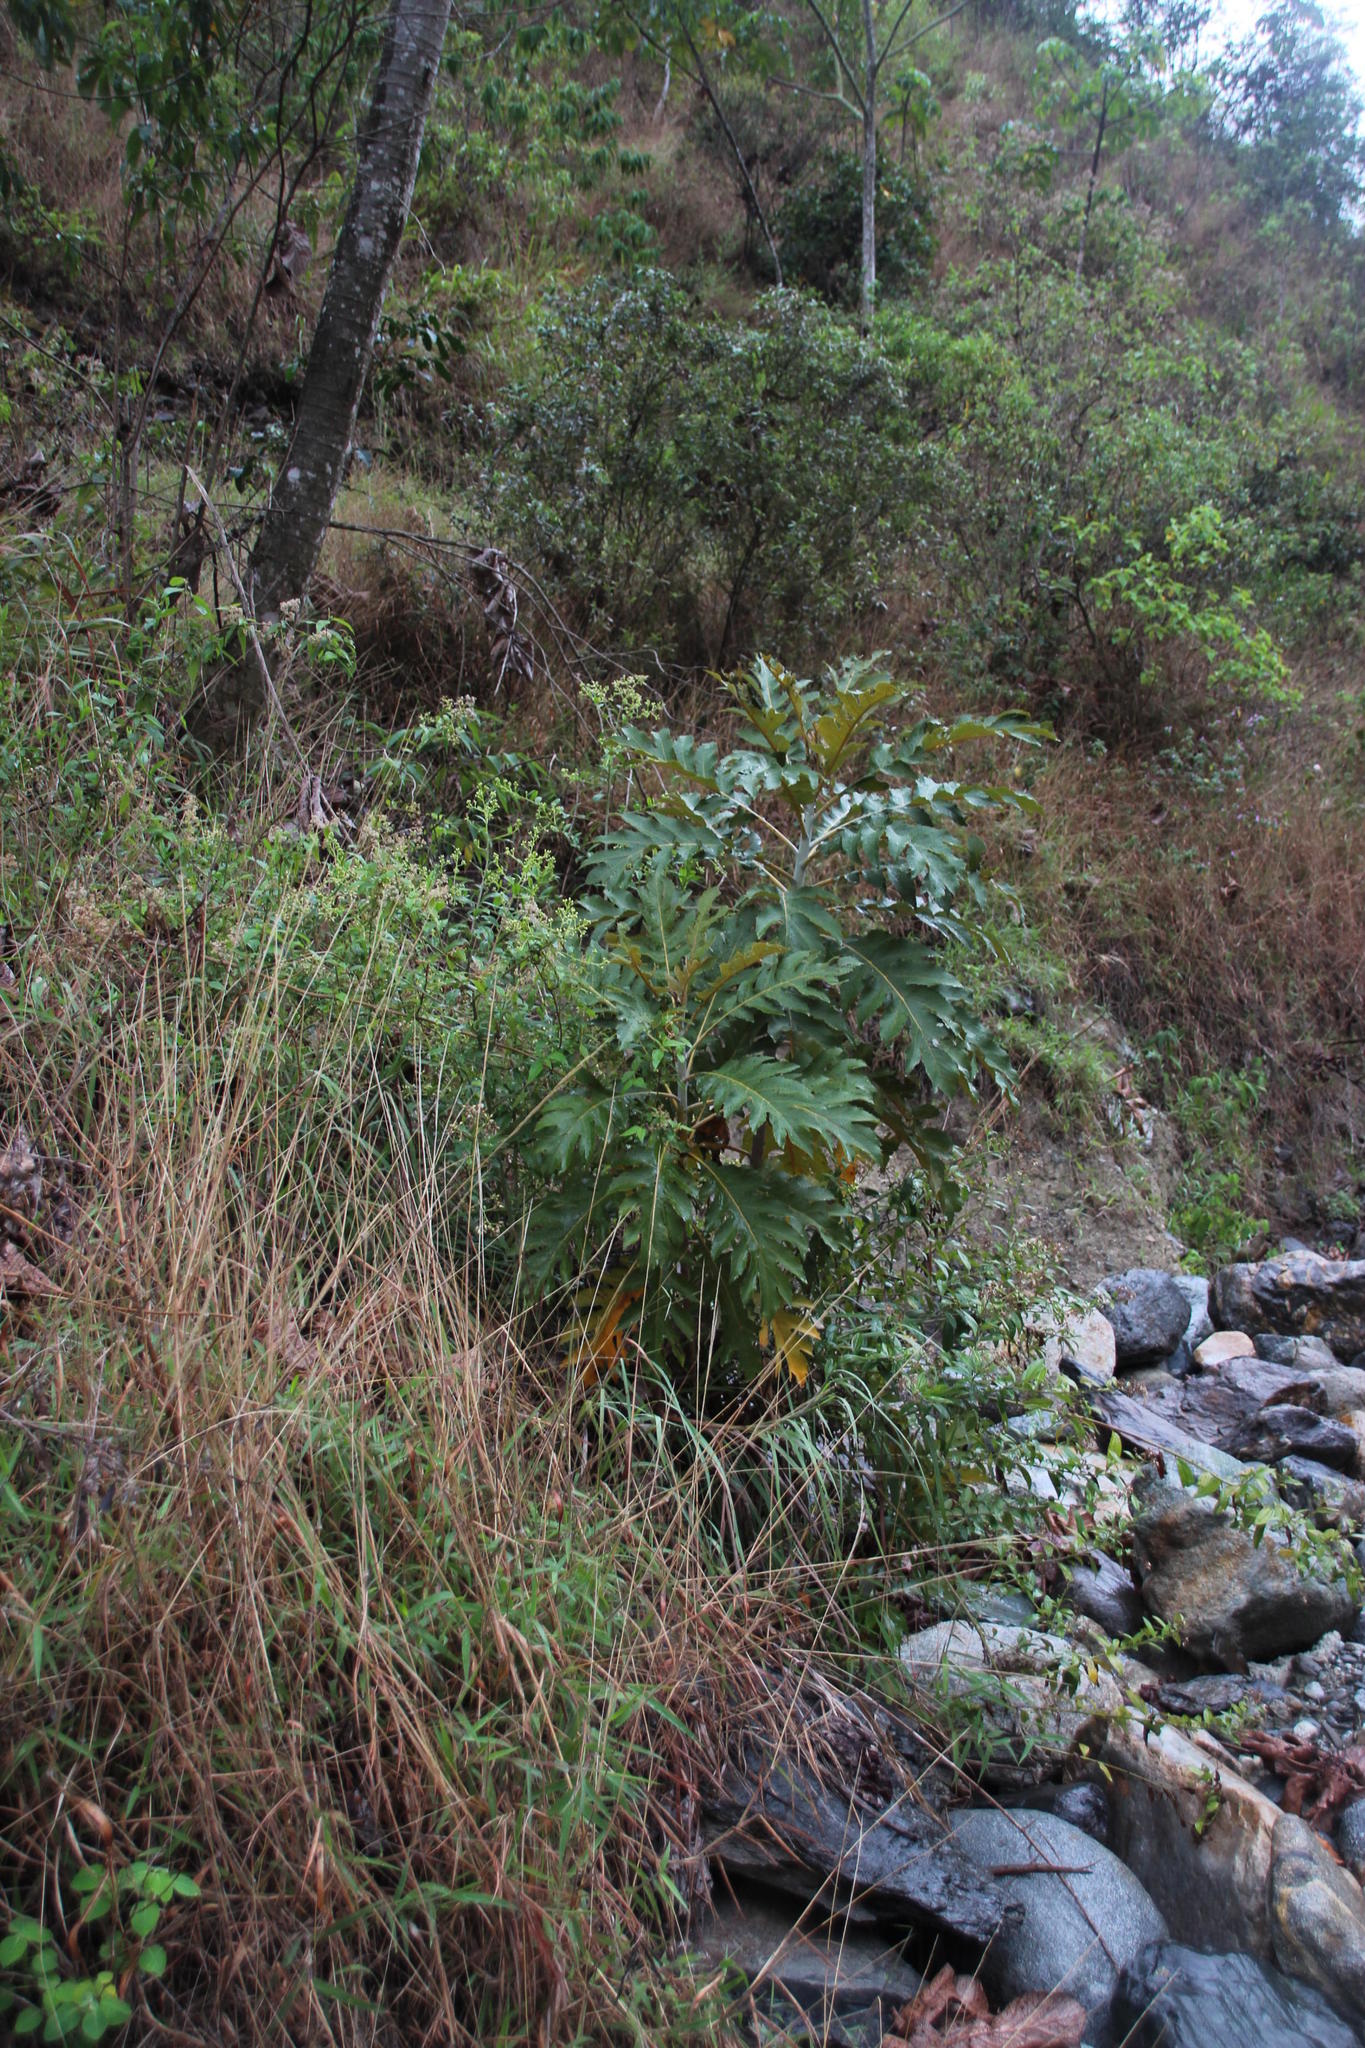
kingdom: Plantae
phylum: Tracheophyta
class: Magnoliopsida
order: Ranunculales
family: Papaveraceae
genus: Bocconia
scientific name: Bocconia frutescens
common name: Tree poppy
